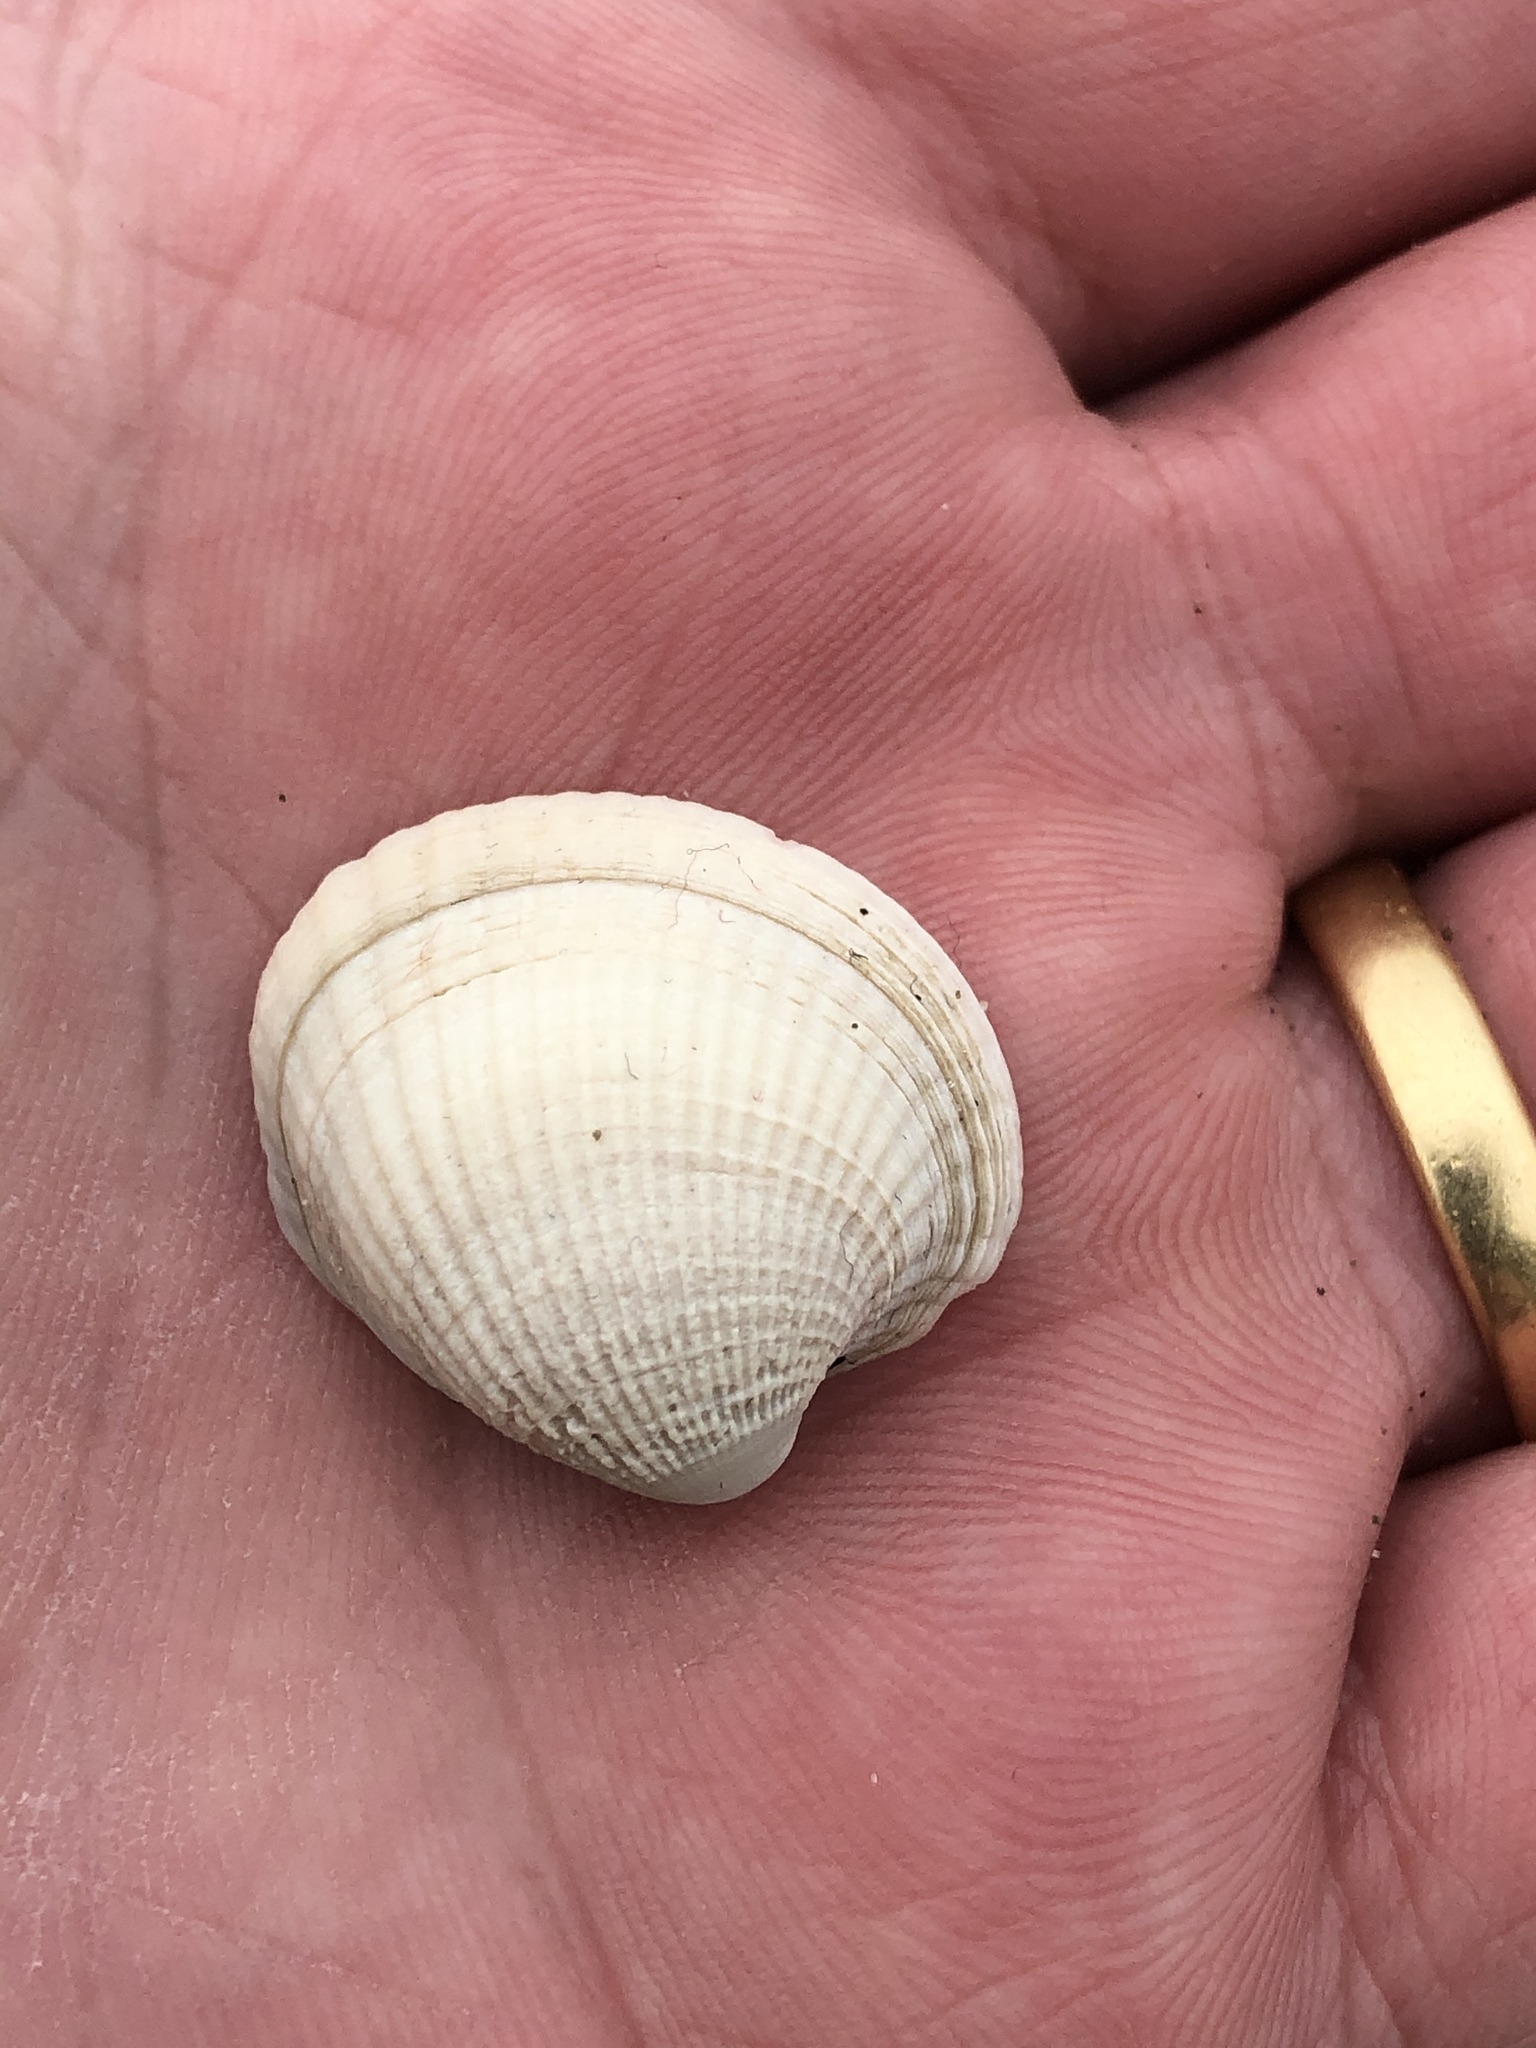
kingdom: Animalia
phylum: Mollusca
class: Bivalvia
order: Venerida
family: Veneridae
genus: Austrovenus
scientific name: Austrovenus stutchburyi
